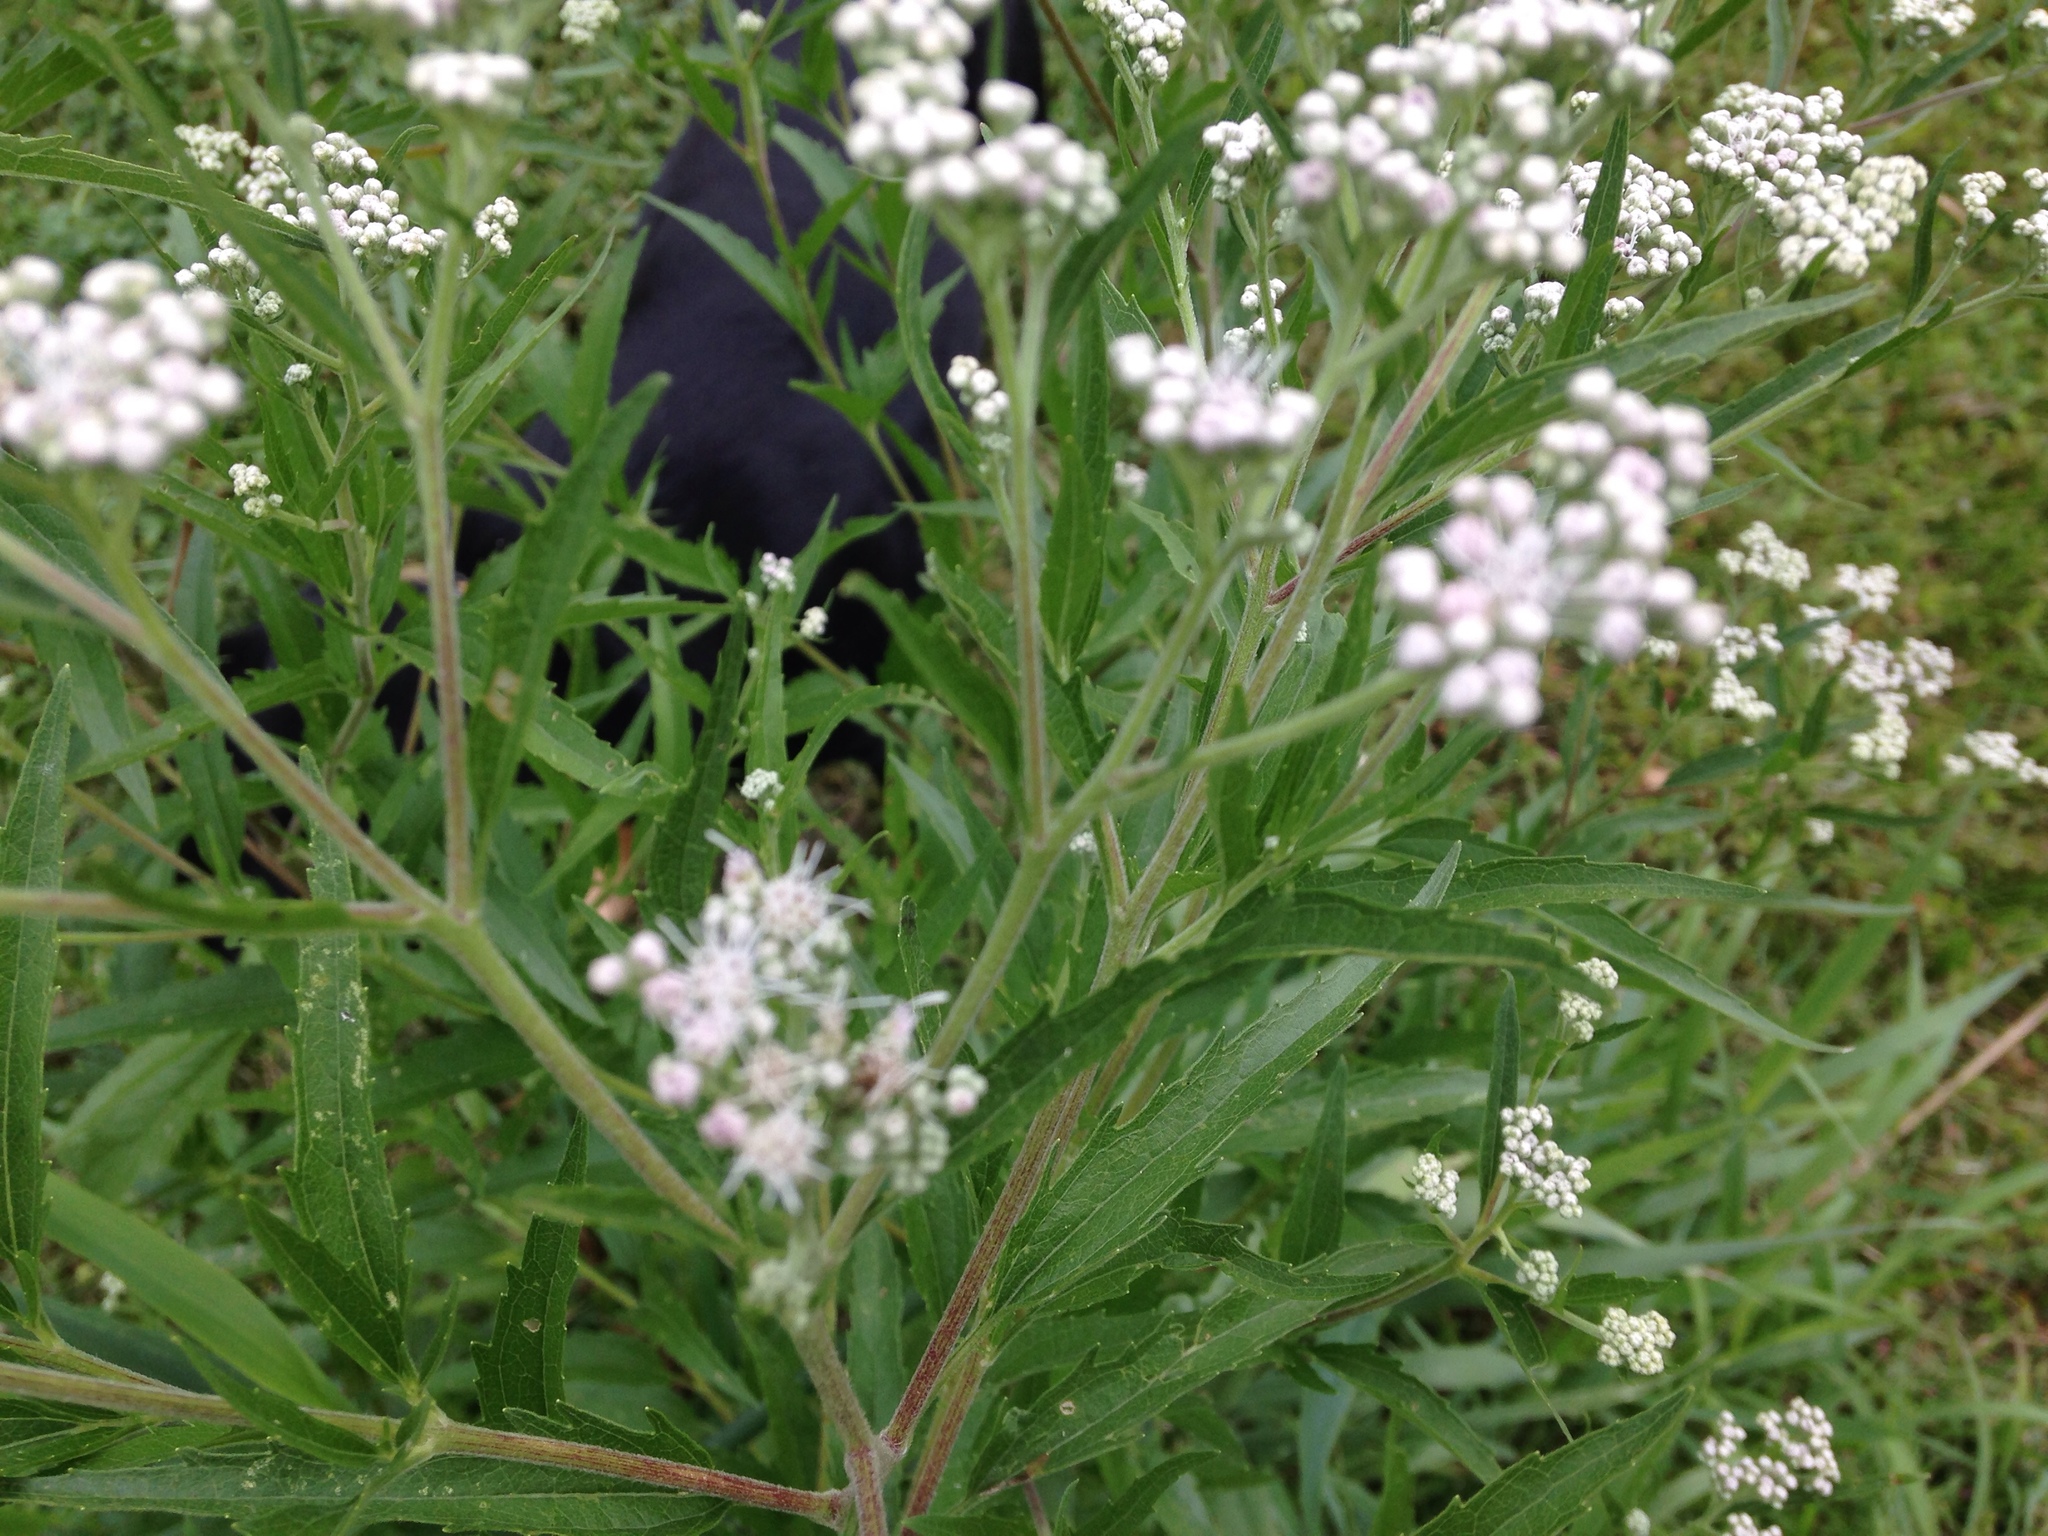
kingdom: Plantae
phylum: Tracheophyta
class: Magnoliopsida
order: Asterales
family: Asteraceae
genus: Eupatorium
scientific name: Eupatorium serotinum
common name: Late boneset
